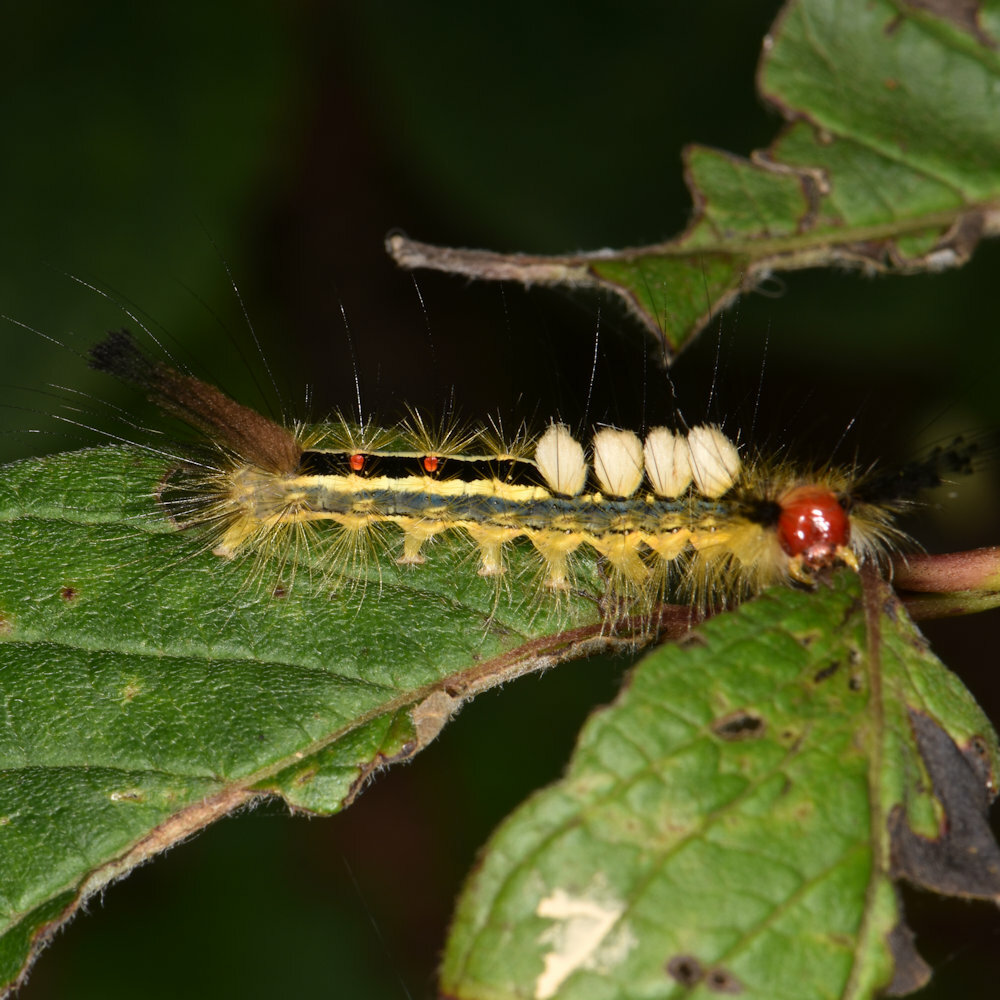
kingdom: Animalia
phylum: Arthropoda
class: Insecta
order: Lepidoptera
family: Erebidae
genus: Orgyia
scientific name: Orgyia leucostigma
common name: White-marked tussock moth
